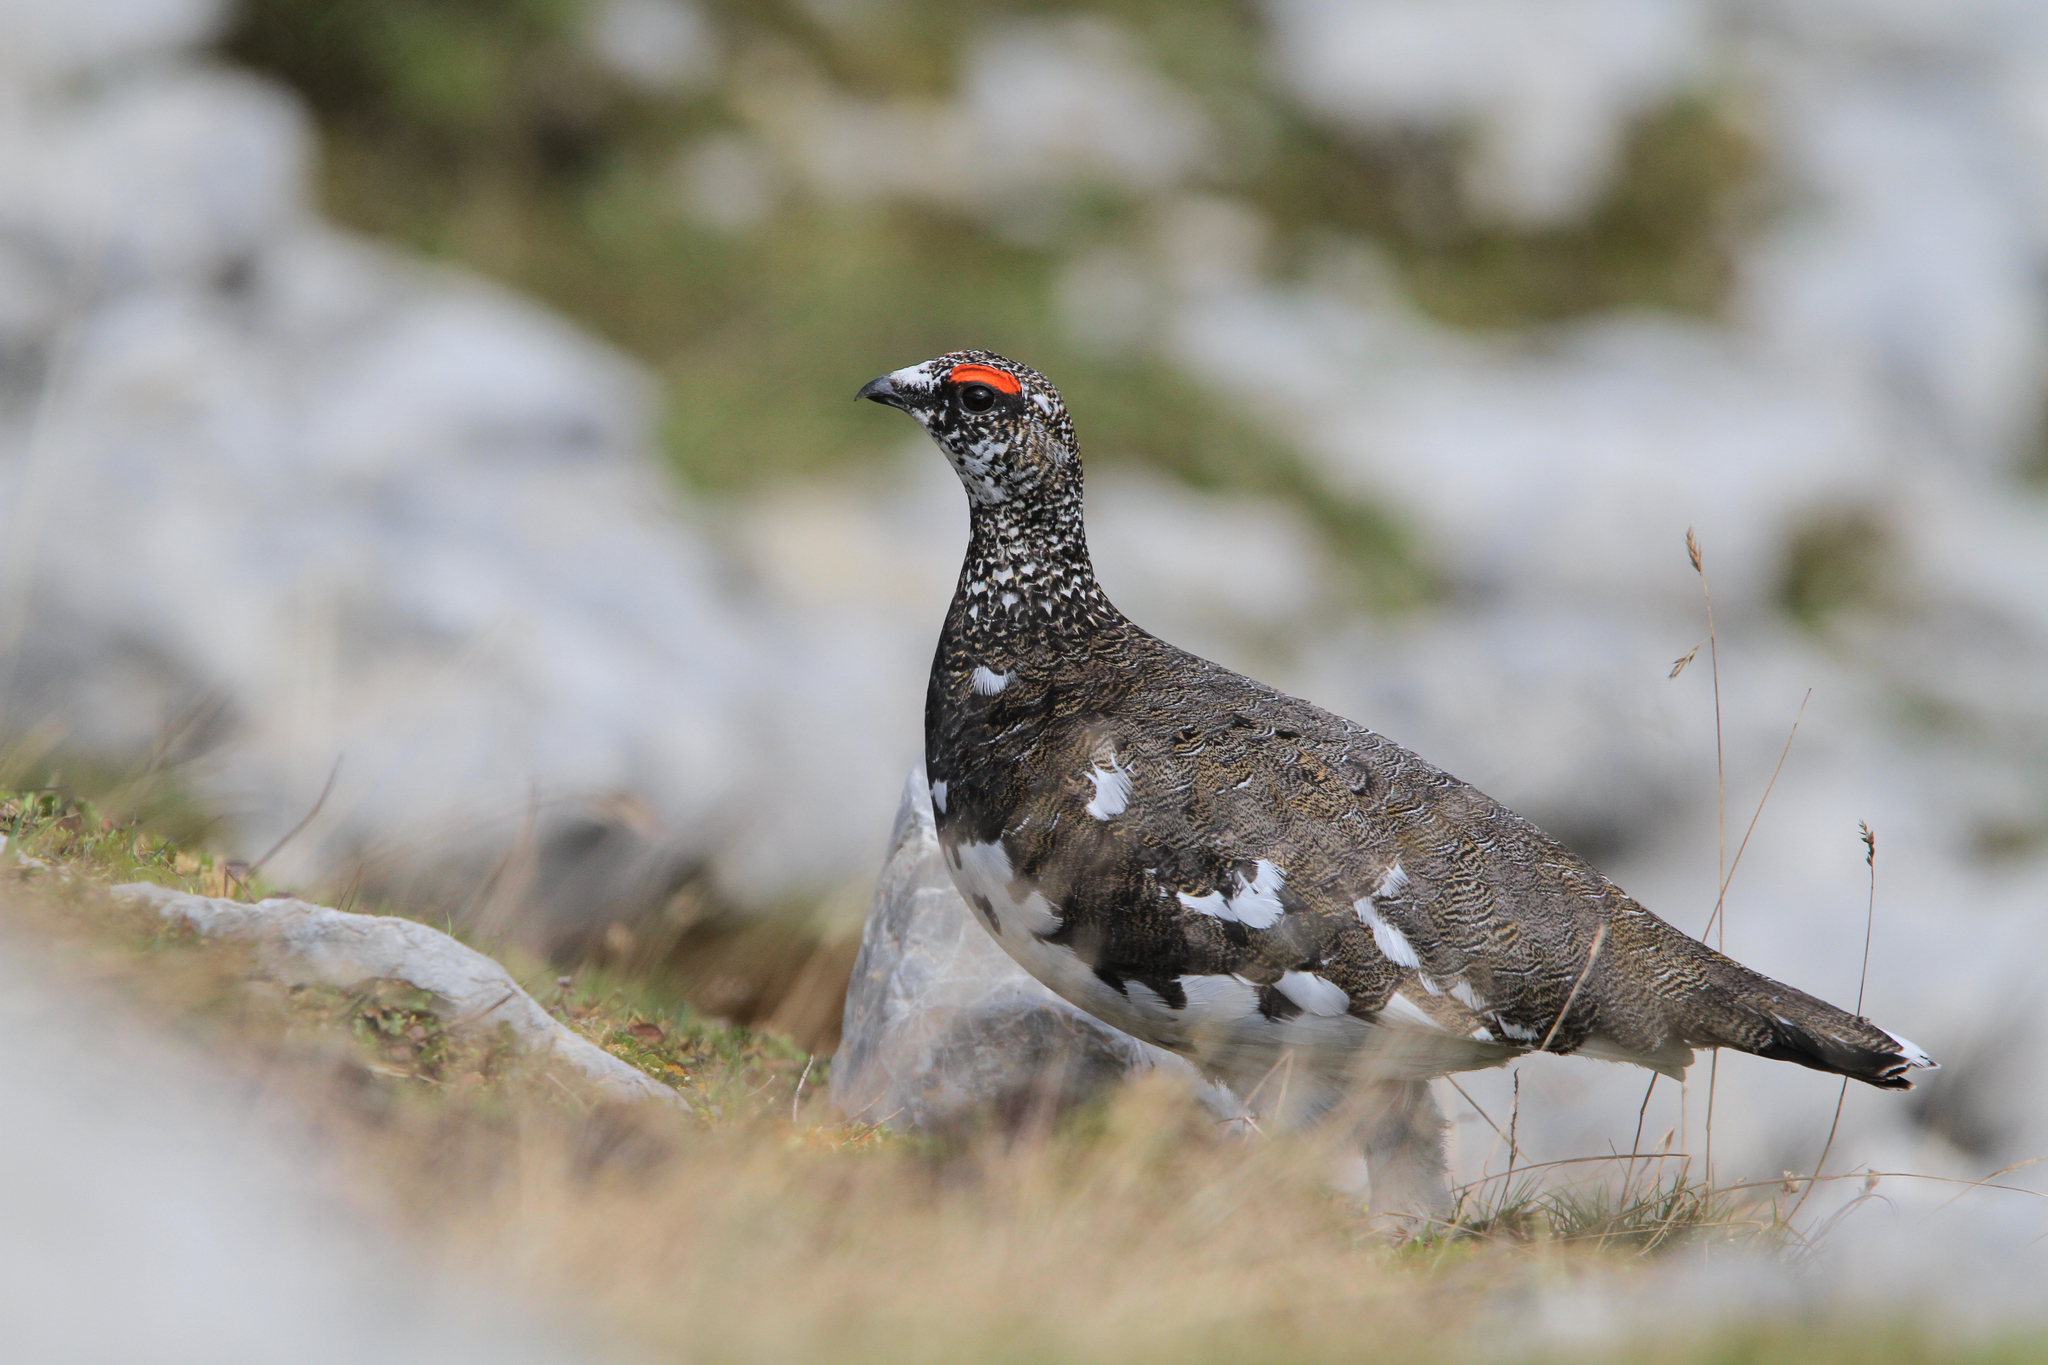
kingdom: Animalia
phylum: Chordata
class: Aves
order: Galliformes
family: Phasianidae
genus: Lagopus
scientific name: Lagopus muta
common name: Rock ptarmigan
